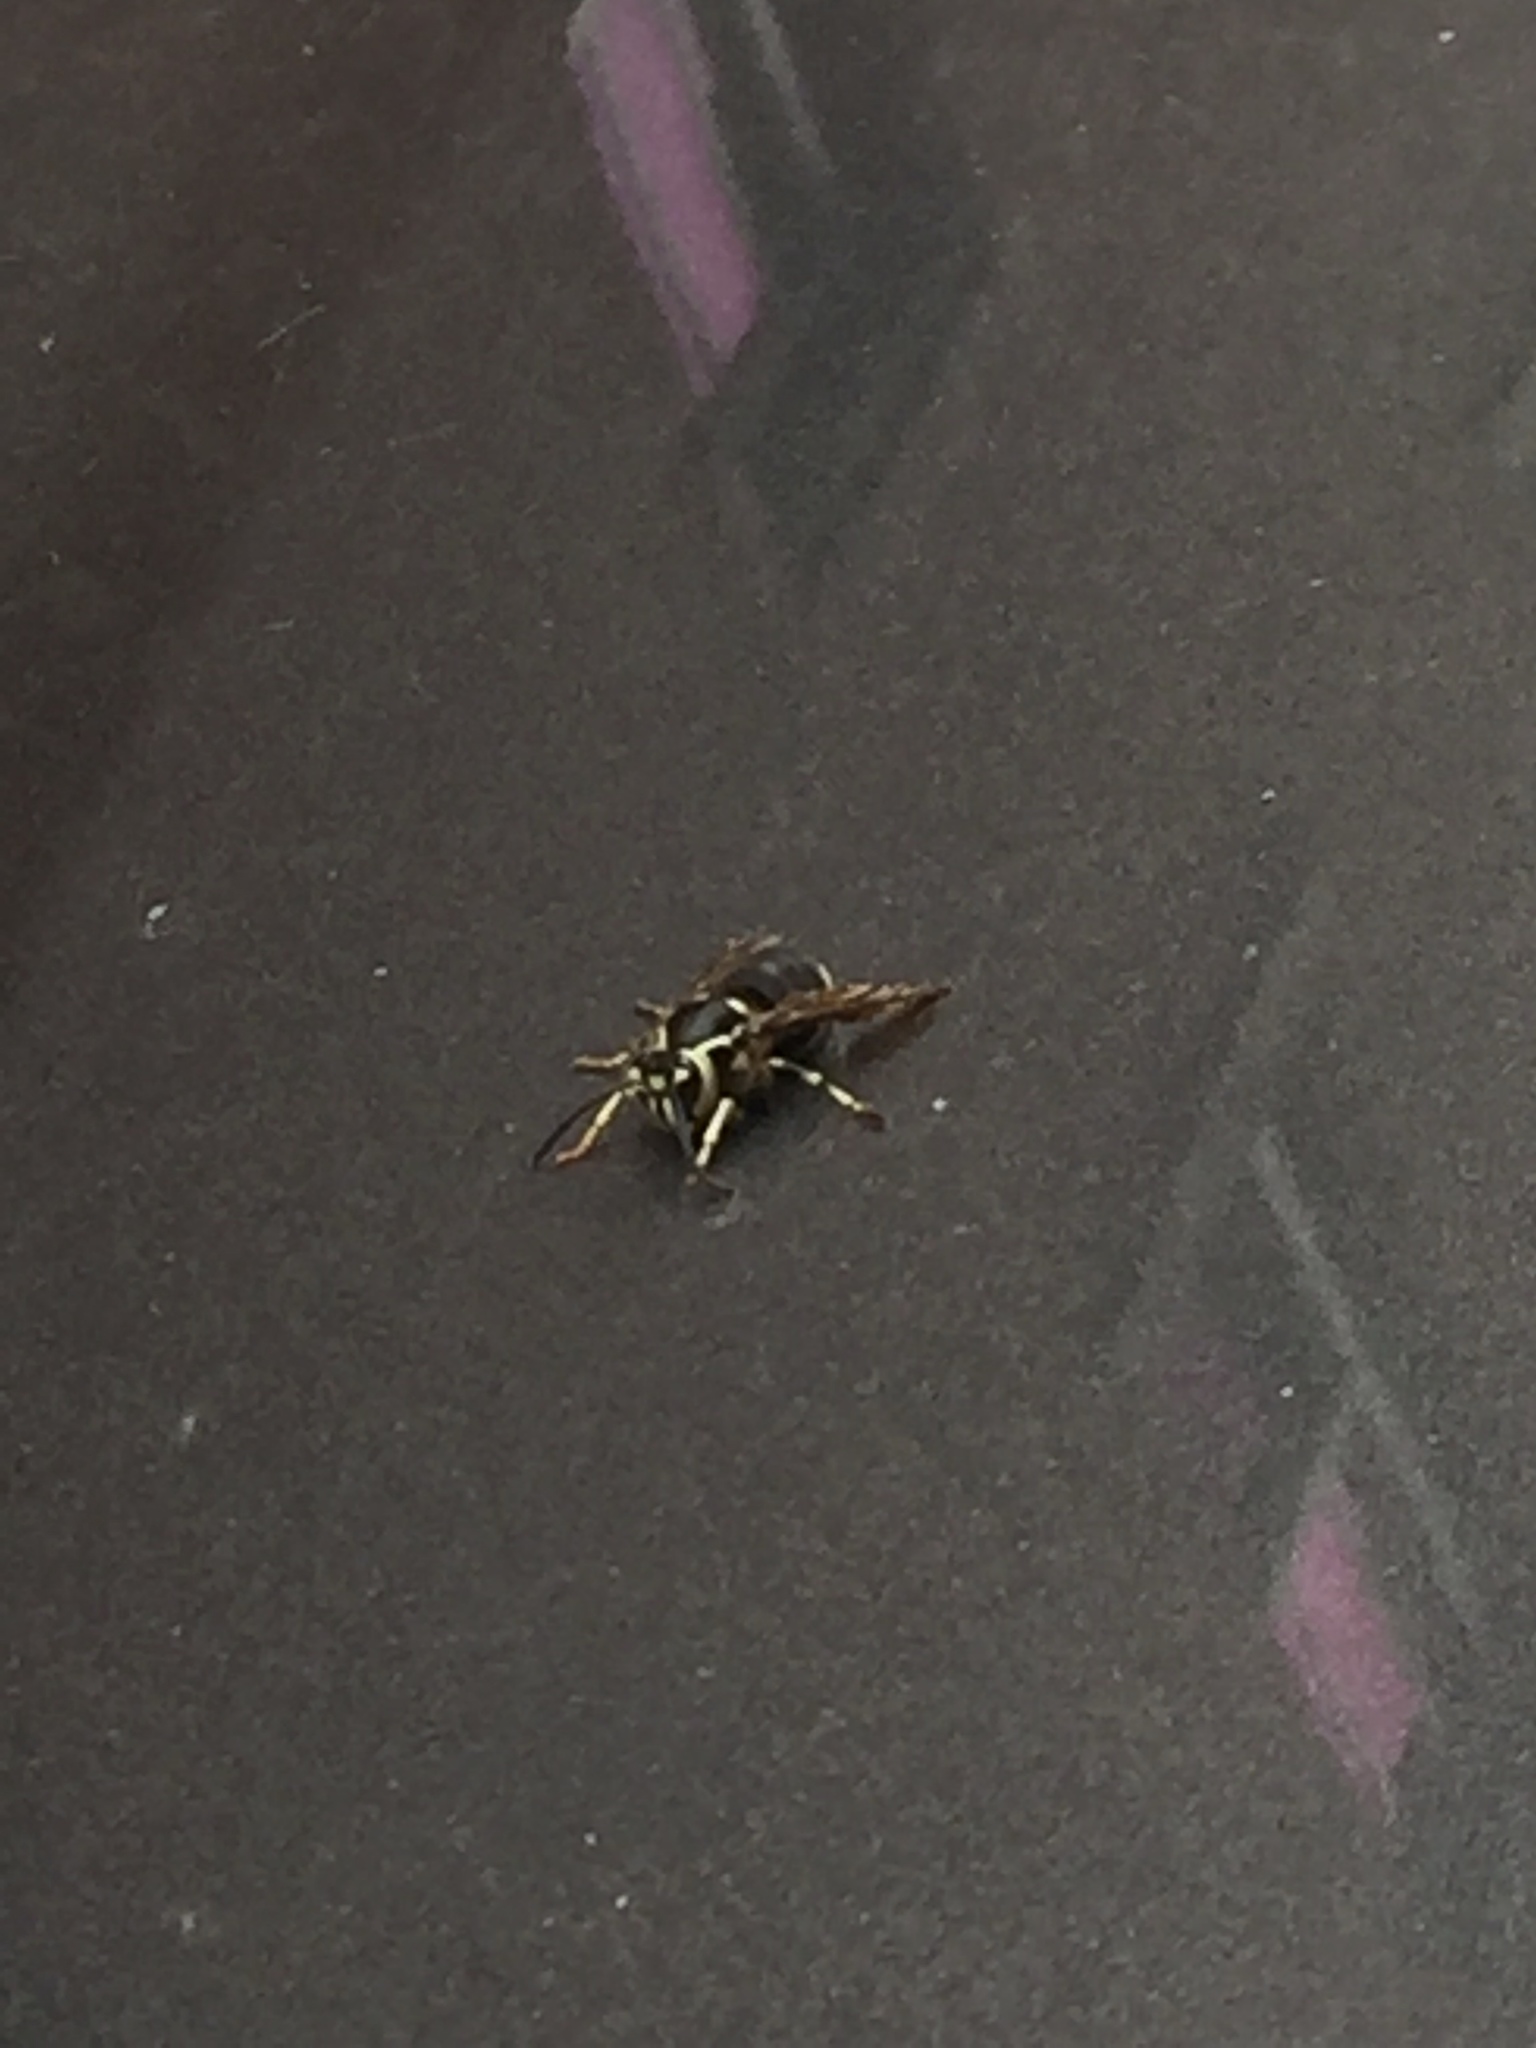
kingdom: Animalia
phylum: Arthropoda
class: Insecta
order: Hymenoptera
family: Vespidae
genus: Dolichovespula
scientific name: Dolichovespula maculata
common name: Bald-faced hornet
